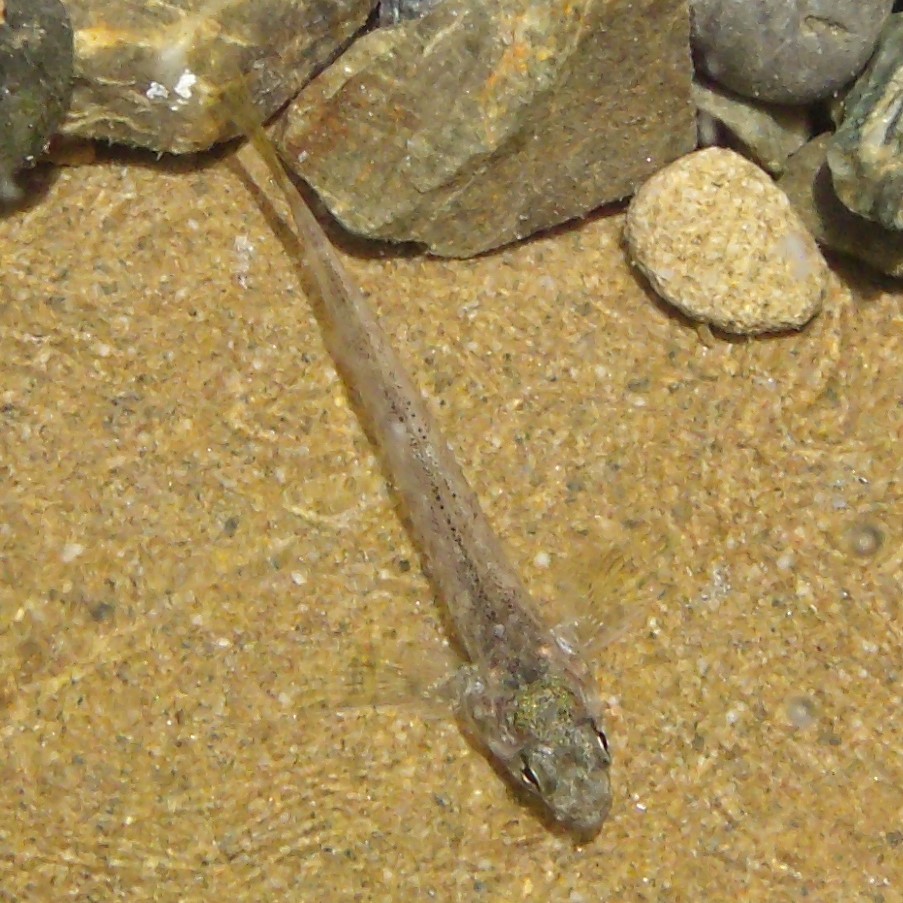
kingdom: Animalia
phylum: Chordata
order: Perciformes
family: Tripterygiidae
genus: Bellapiscis
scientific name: Bellapiscis medius
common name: Twister
